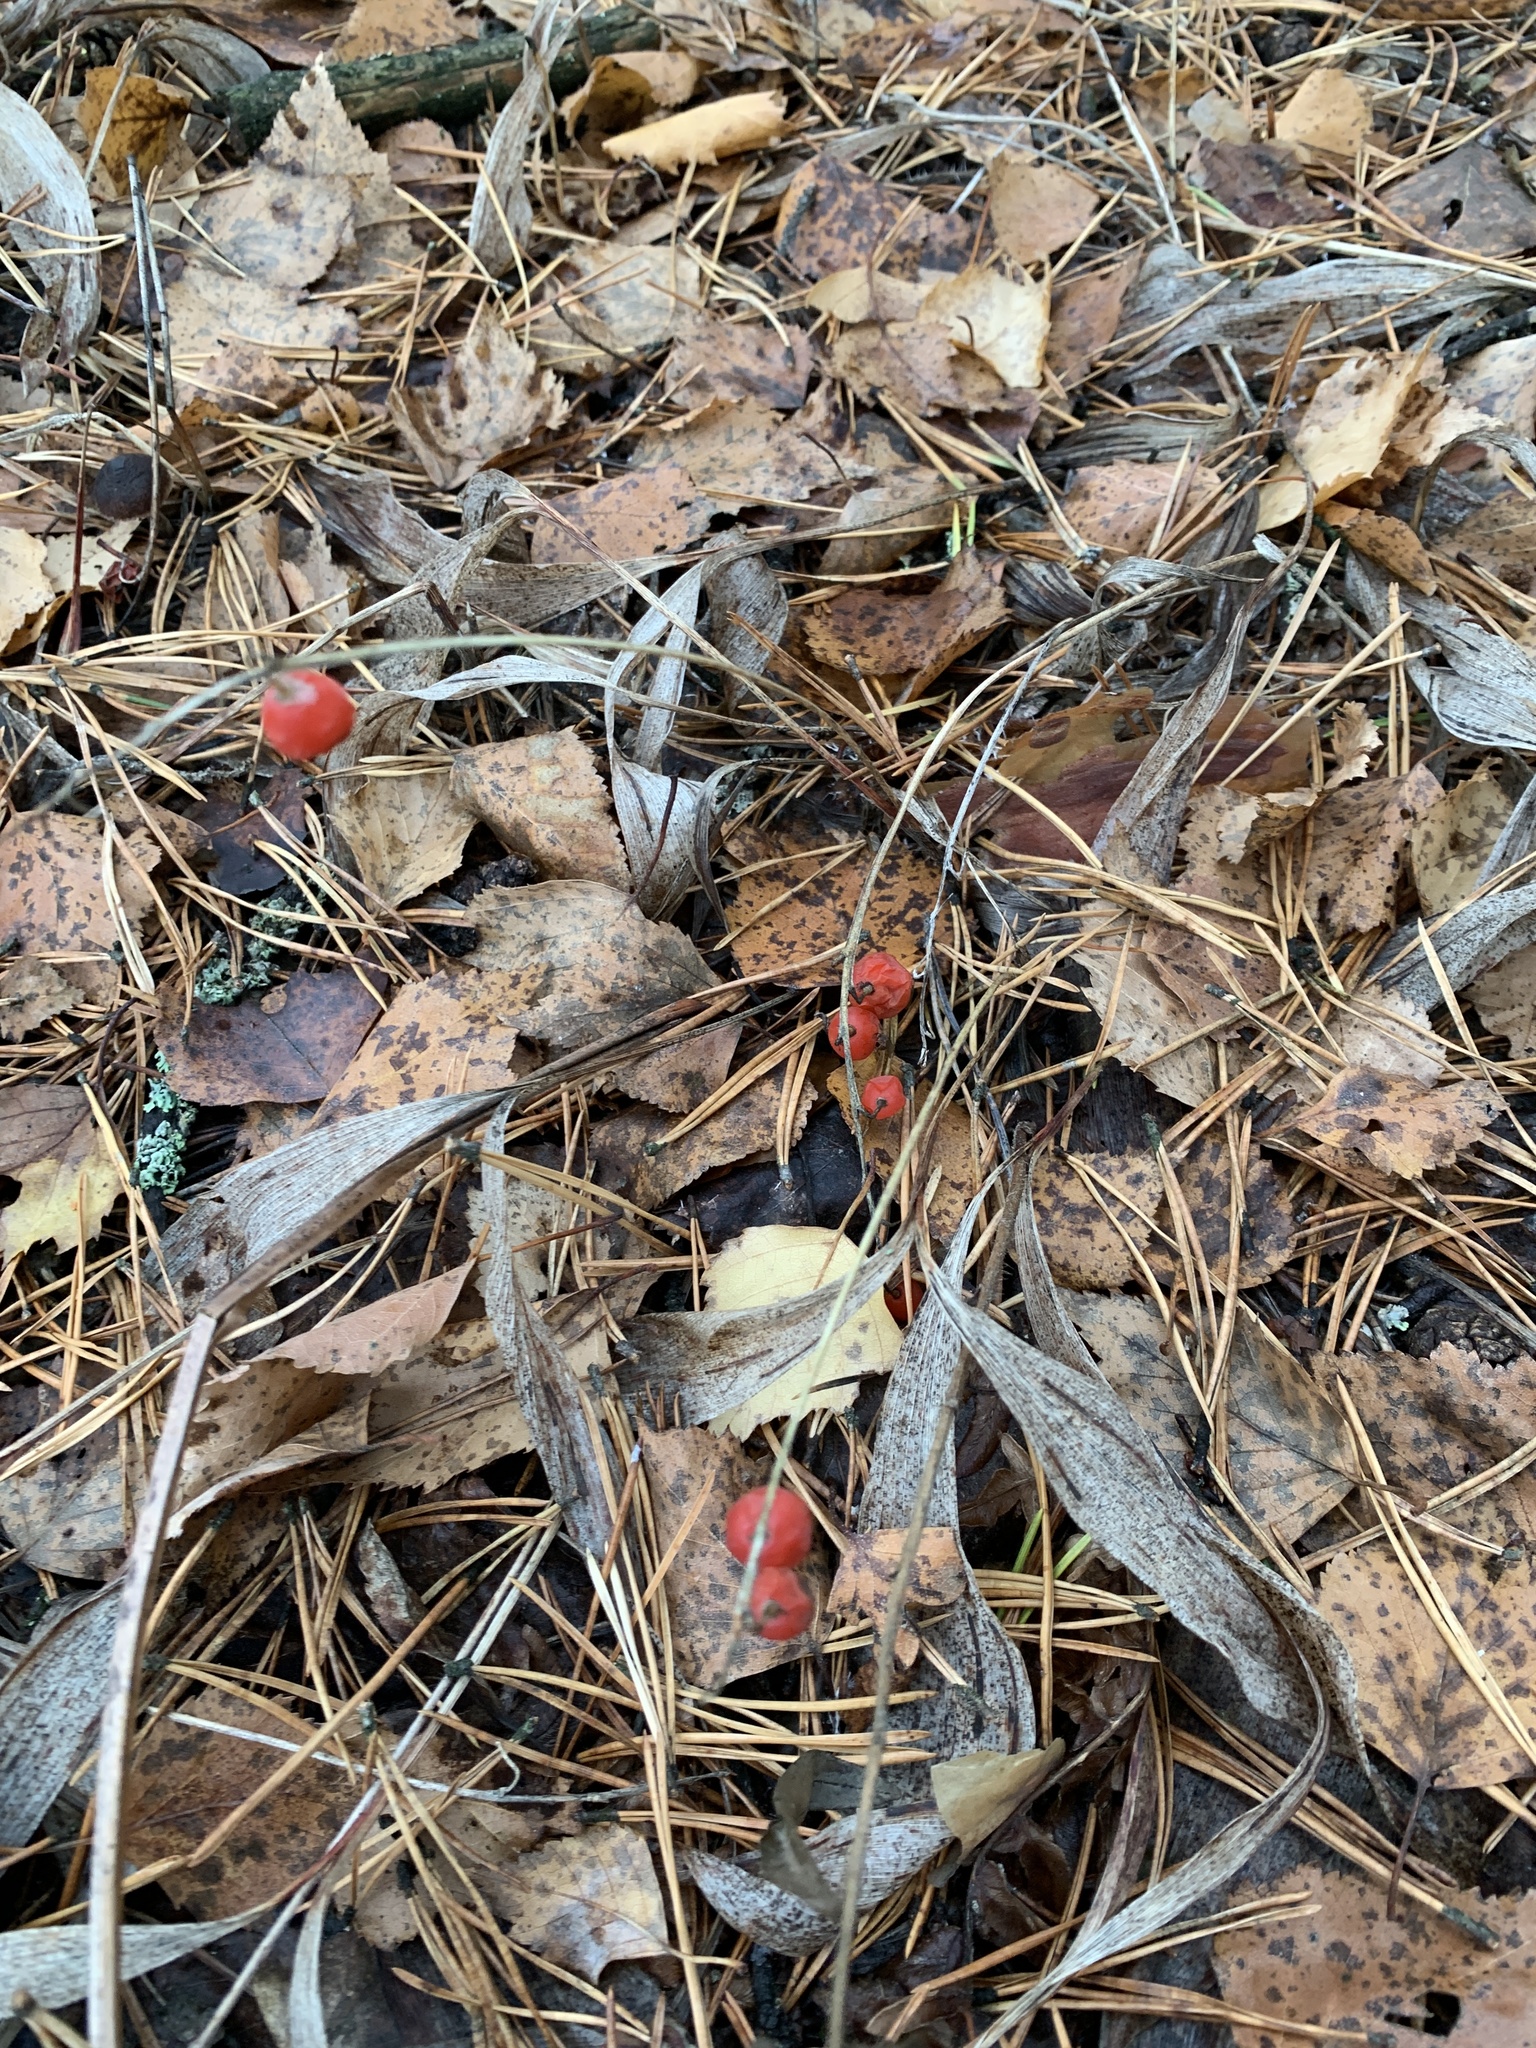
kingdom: Plantae
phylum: Tracheophyta
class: Liliopsida
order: Asparagales
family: Asparagaceae
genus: Convallaria
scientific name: Convallaria majalis
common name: Lily-of-the-valley
